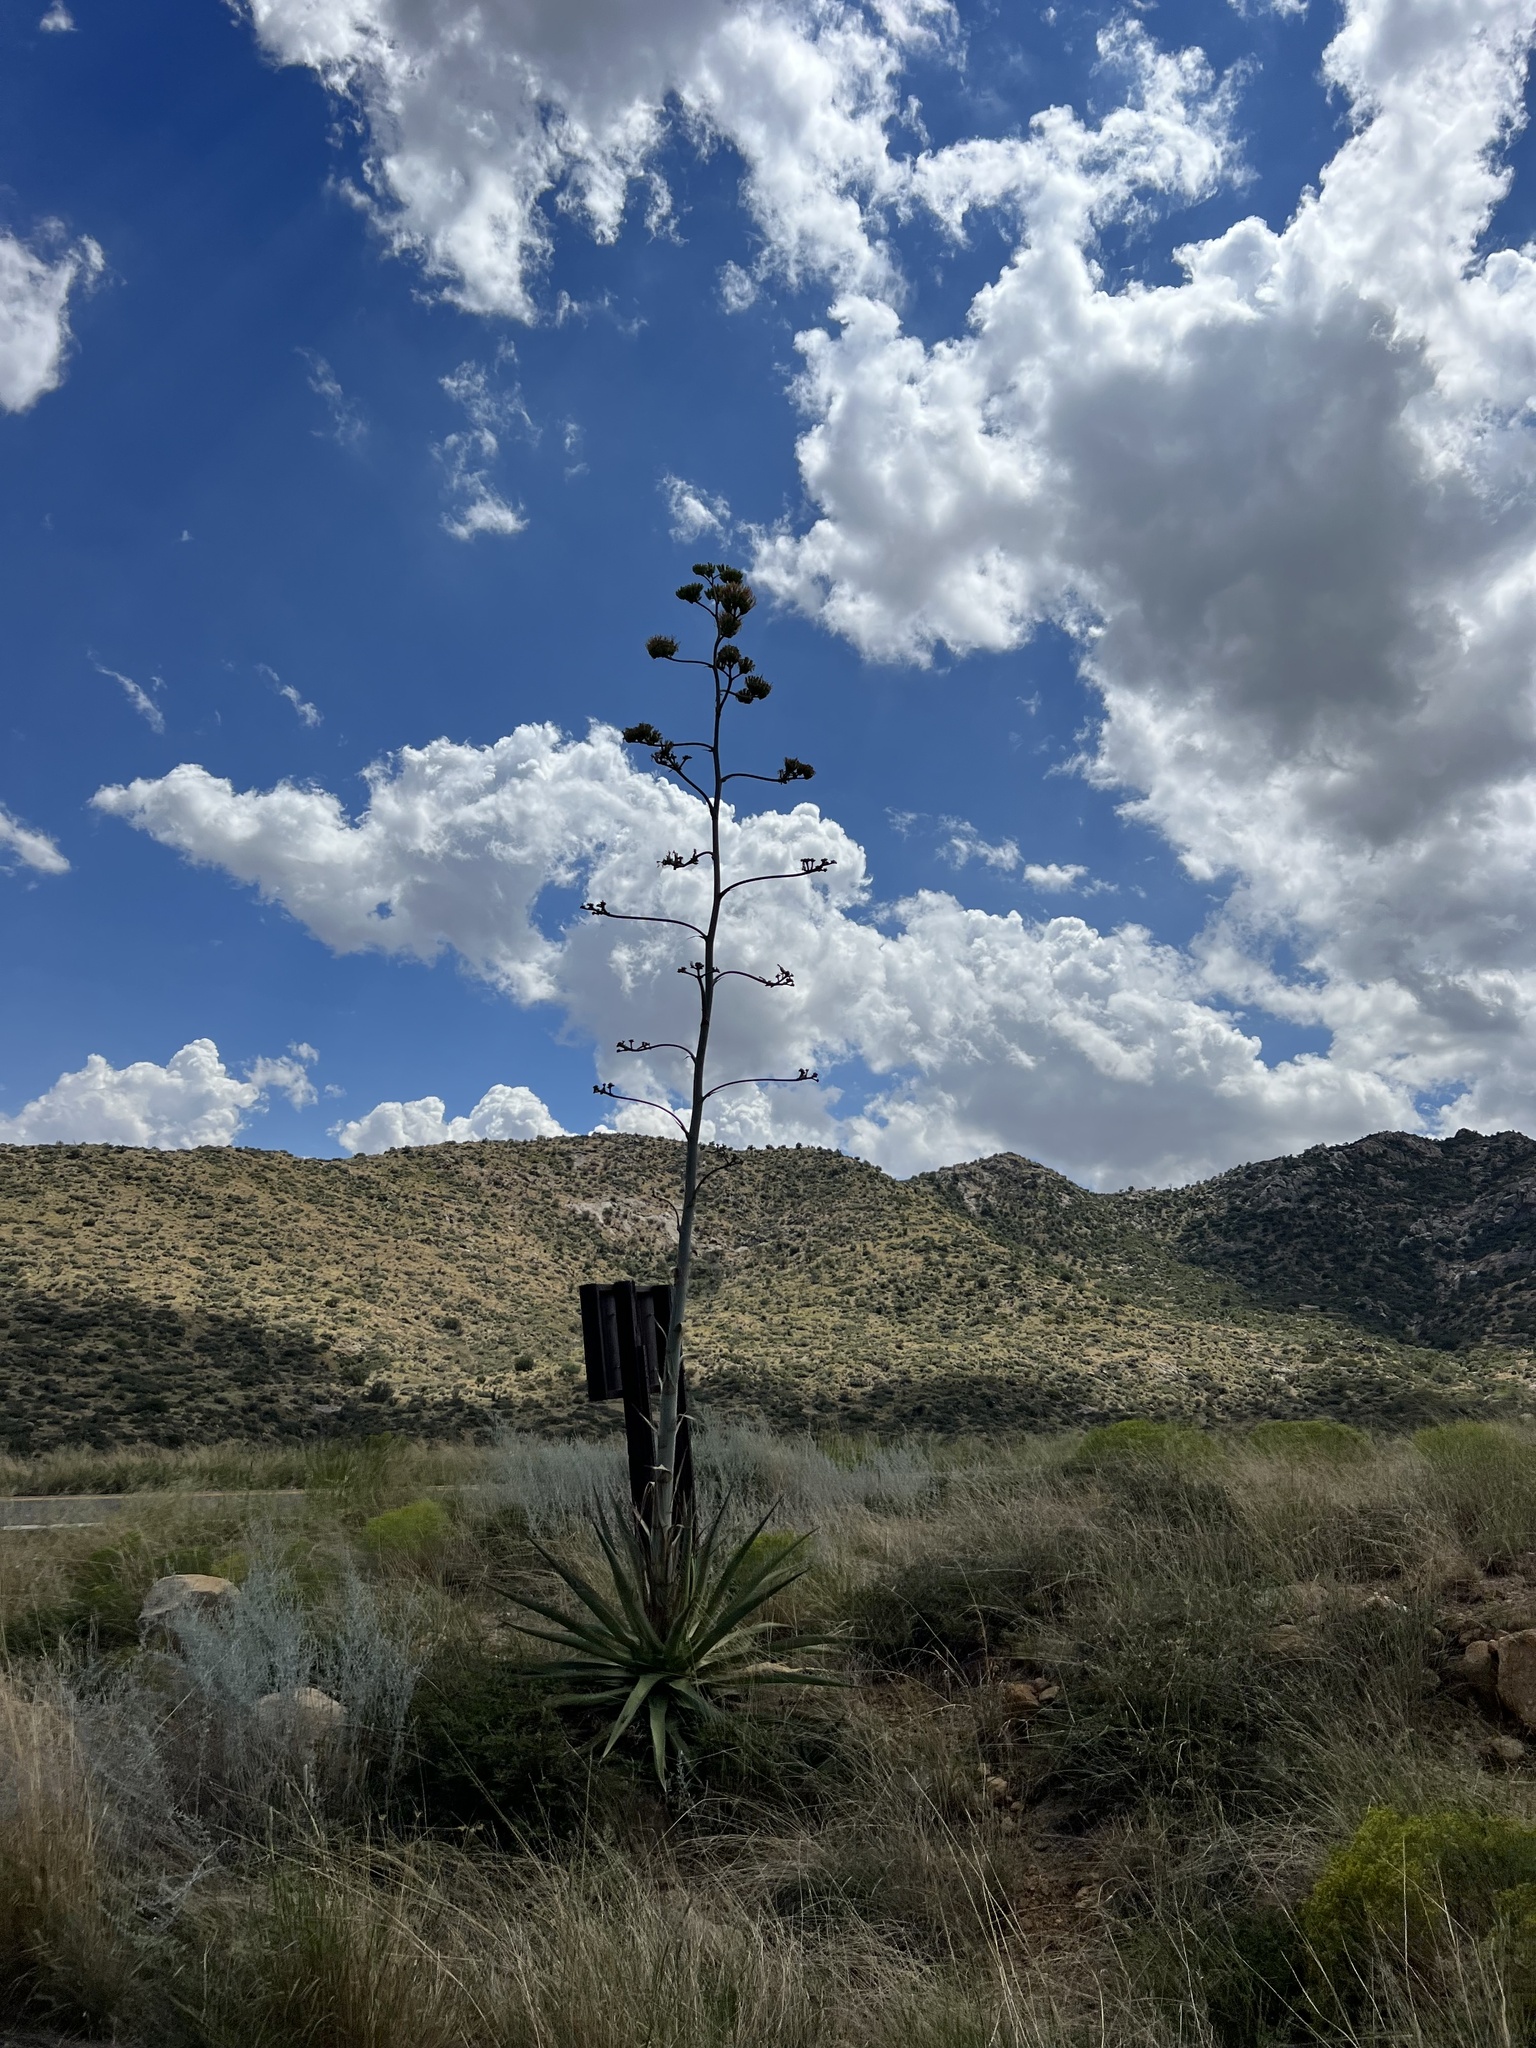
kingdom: Plantae
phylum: Tracheophyta
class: Liliopsida
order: Asparagales
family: Asparagaceae
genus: Agave
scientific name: Agave palmeri
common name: Palmer agave
